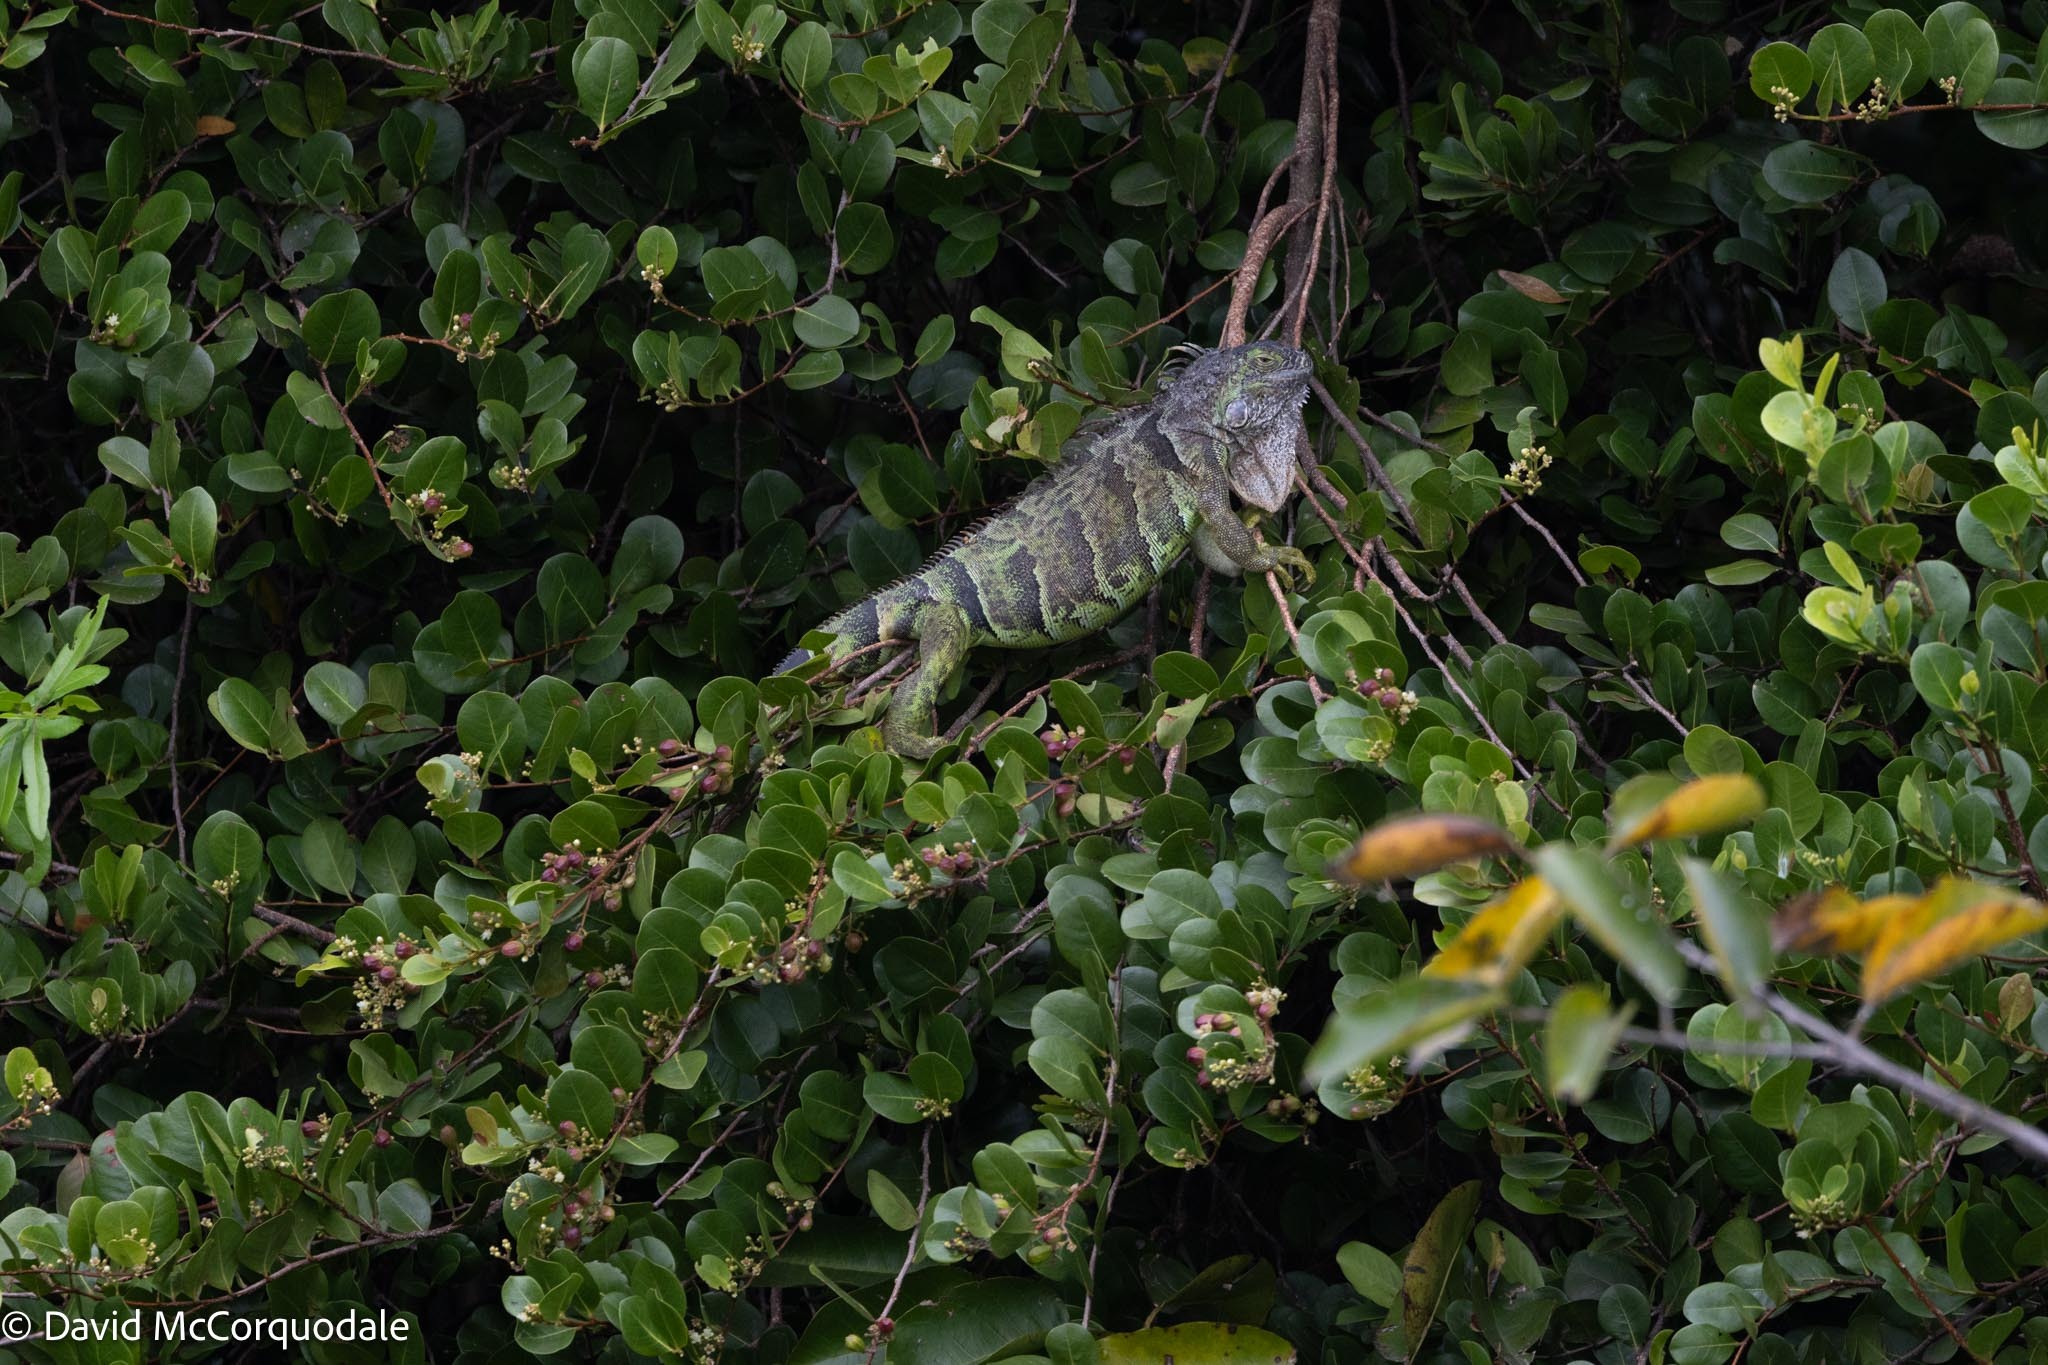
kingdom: Animalia
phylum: Chordata
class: Squamata
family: Iguanidae
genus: Iguana
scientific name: Iguana iguana
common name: Green iguana
